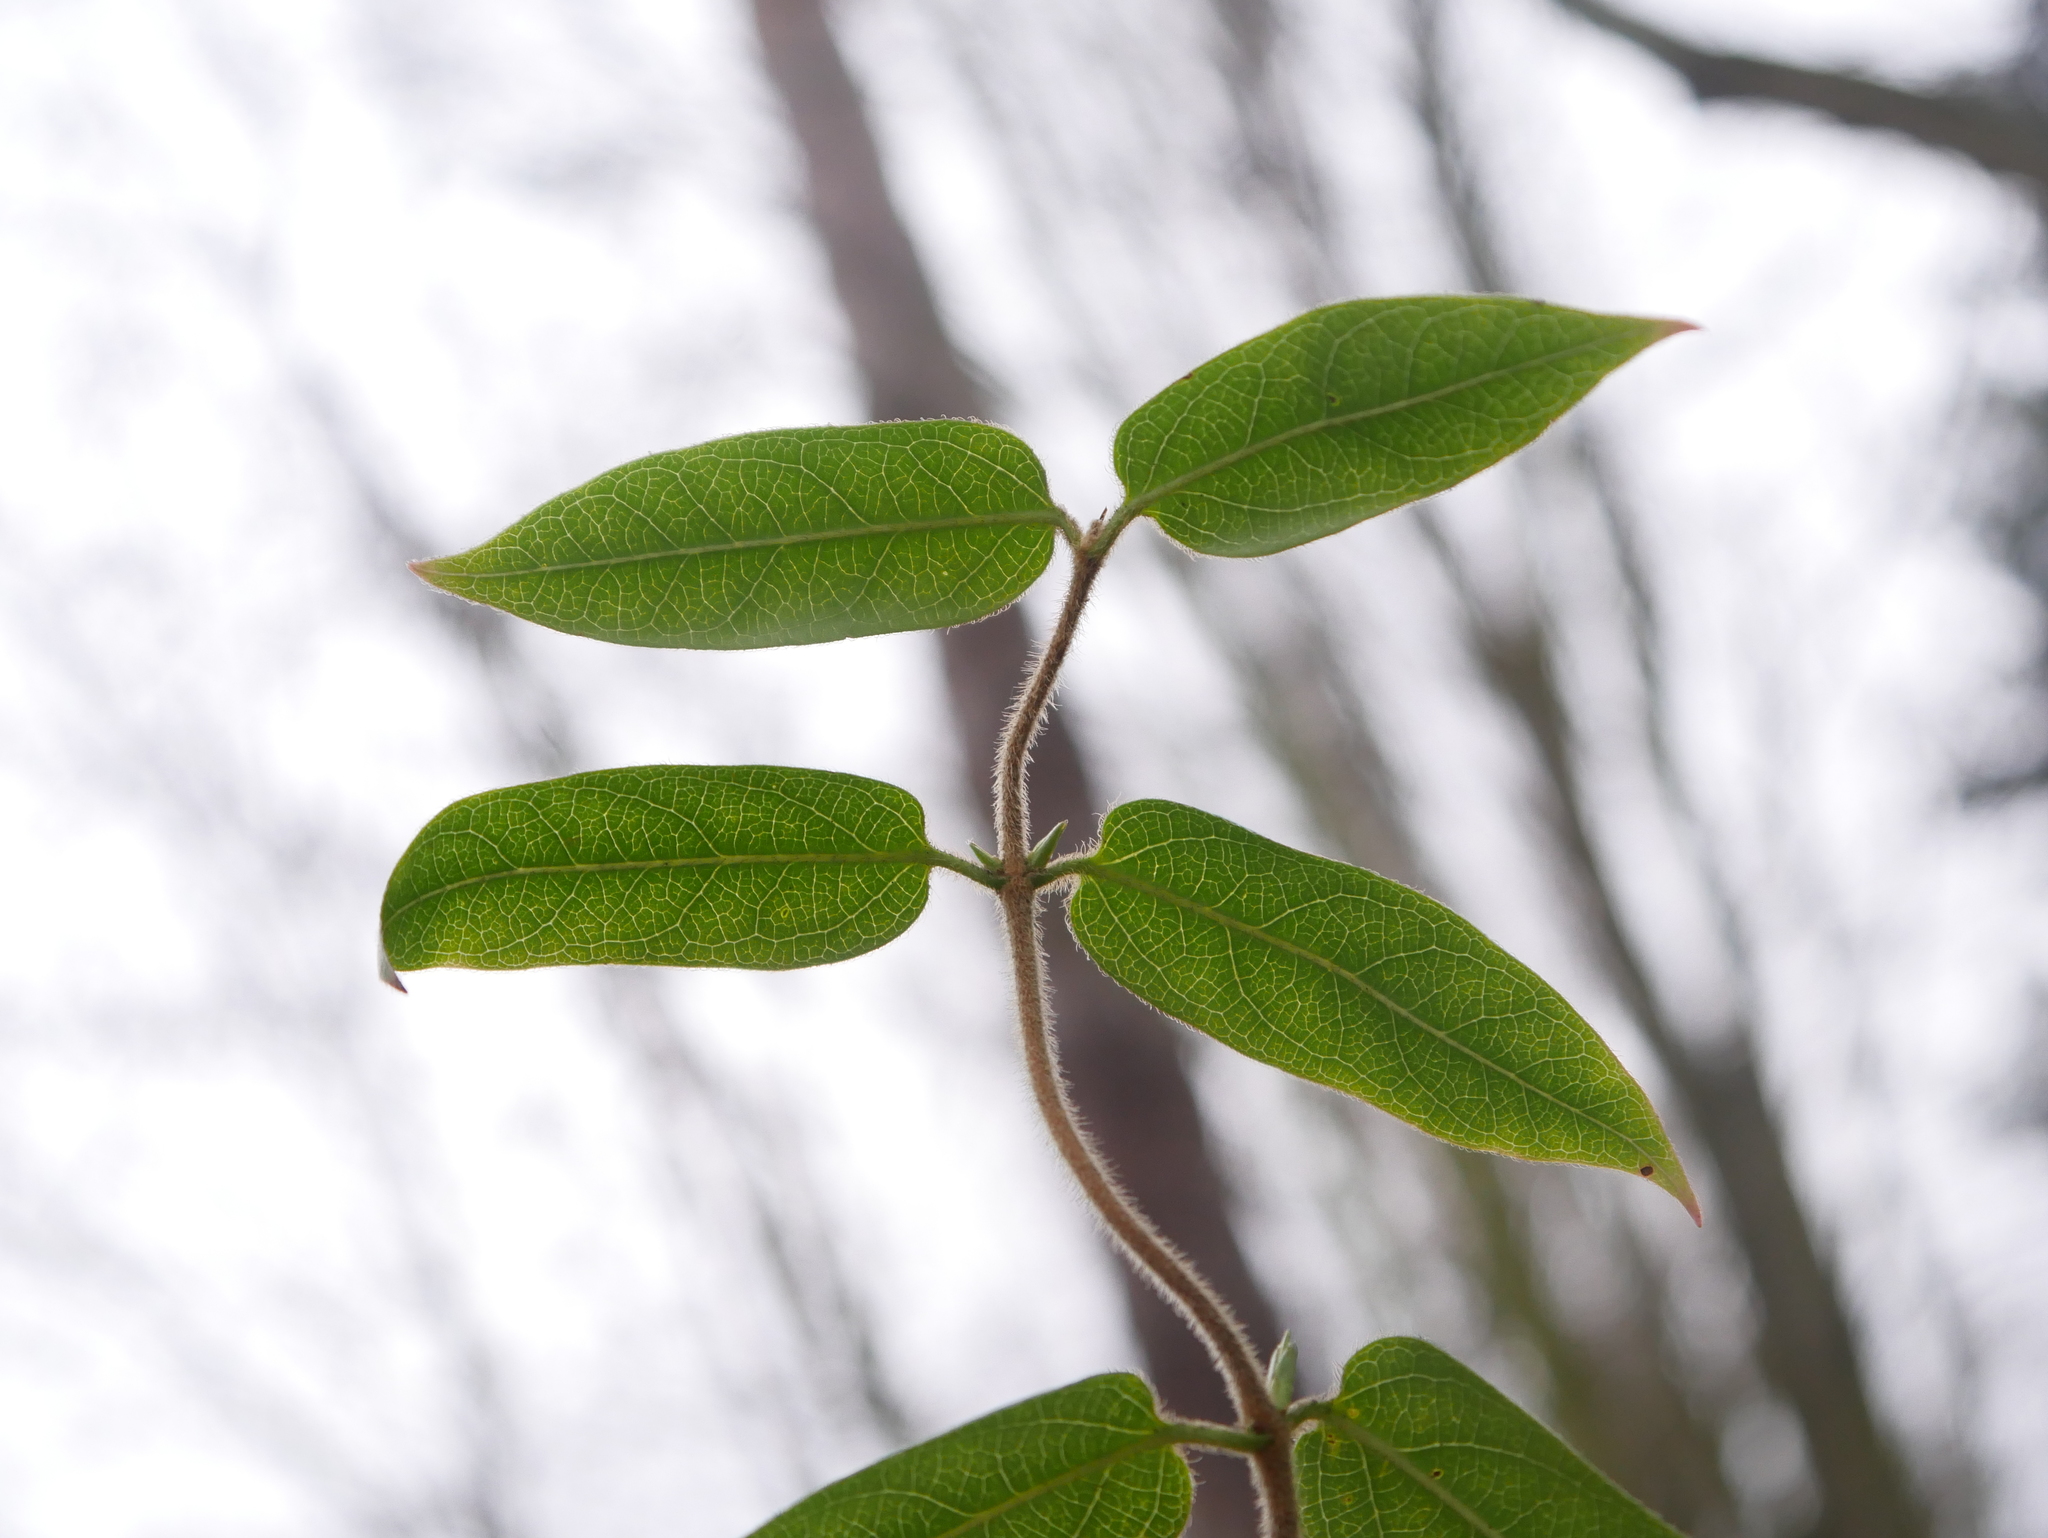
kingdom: Plantae
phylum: Tracheophyta
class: Magnoliopsida
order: Dipsacales
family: Caprifoliaceae
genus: Lonicera
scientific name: Lonicera acuminata
